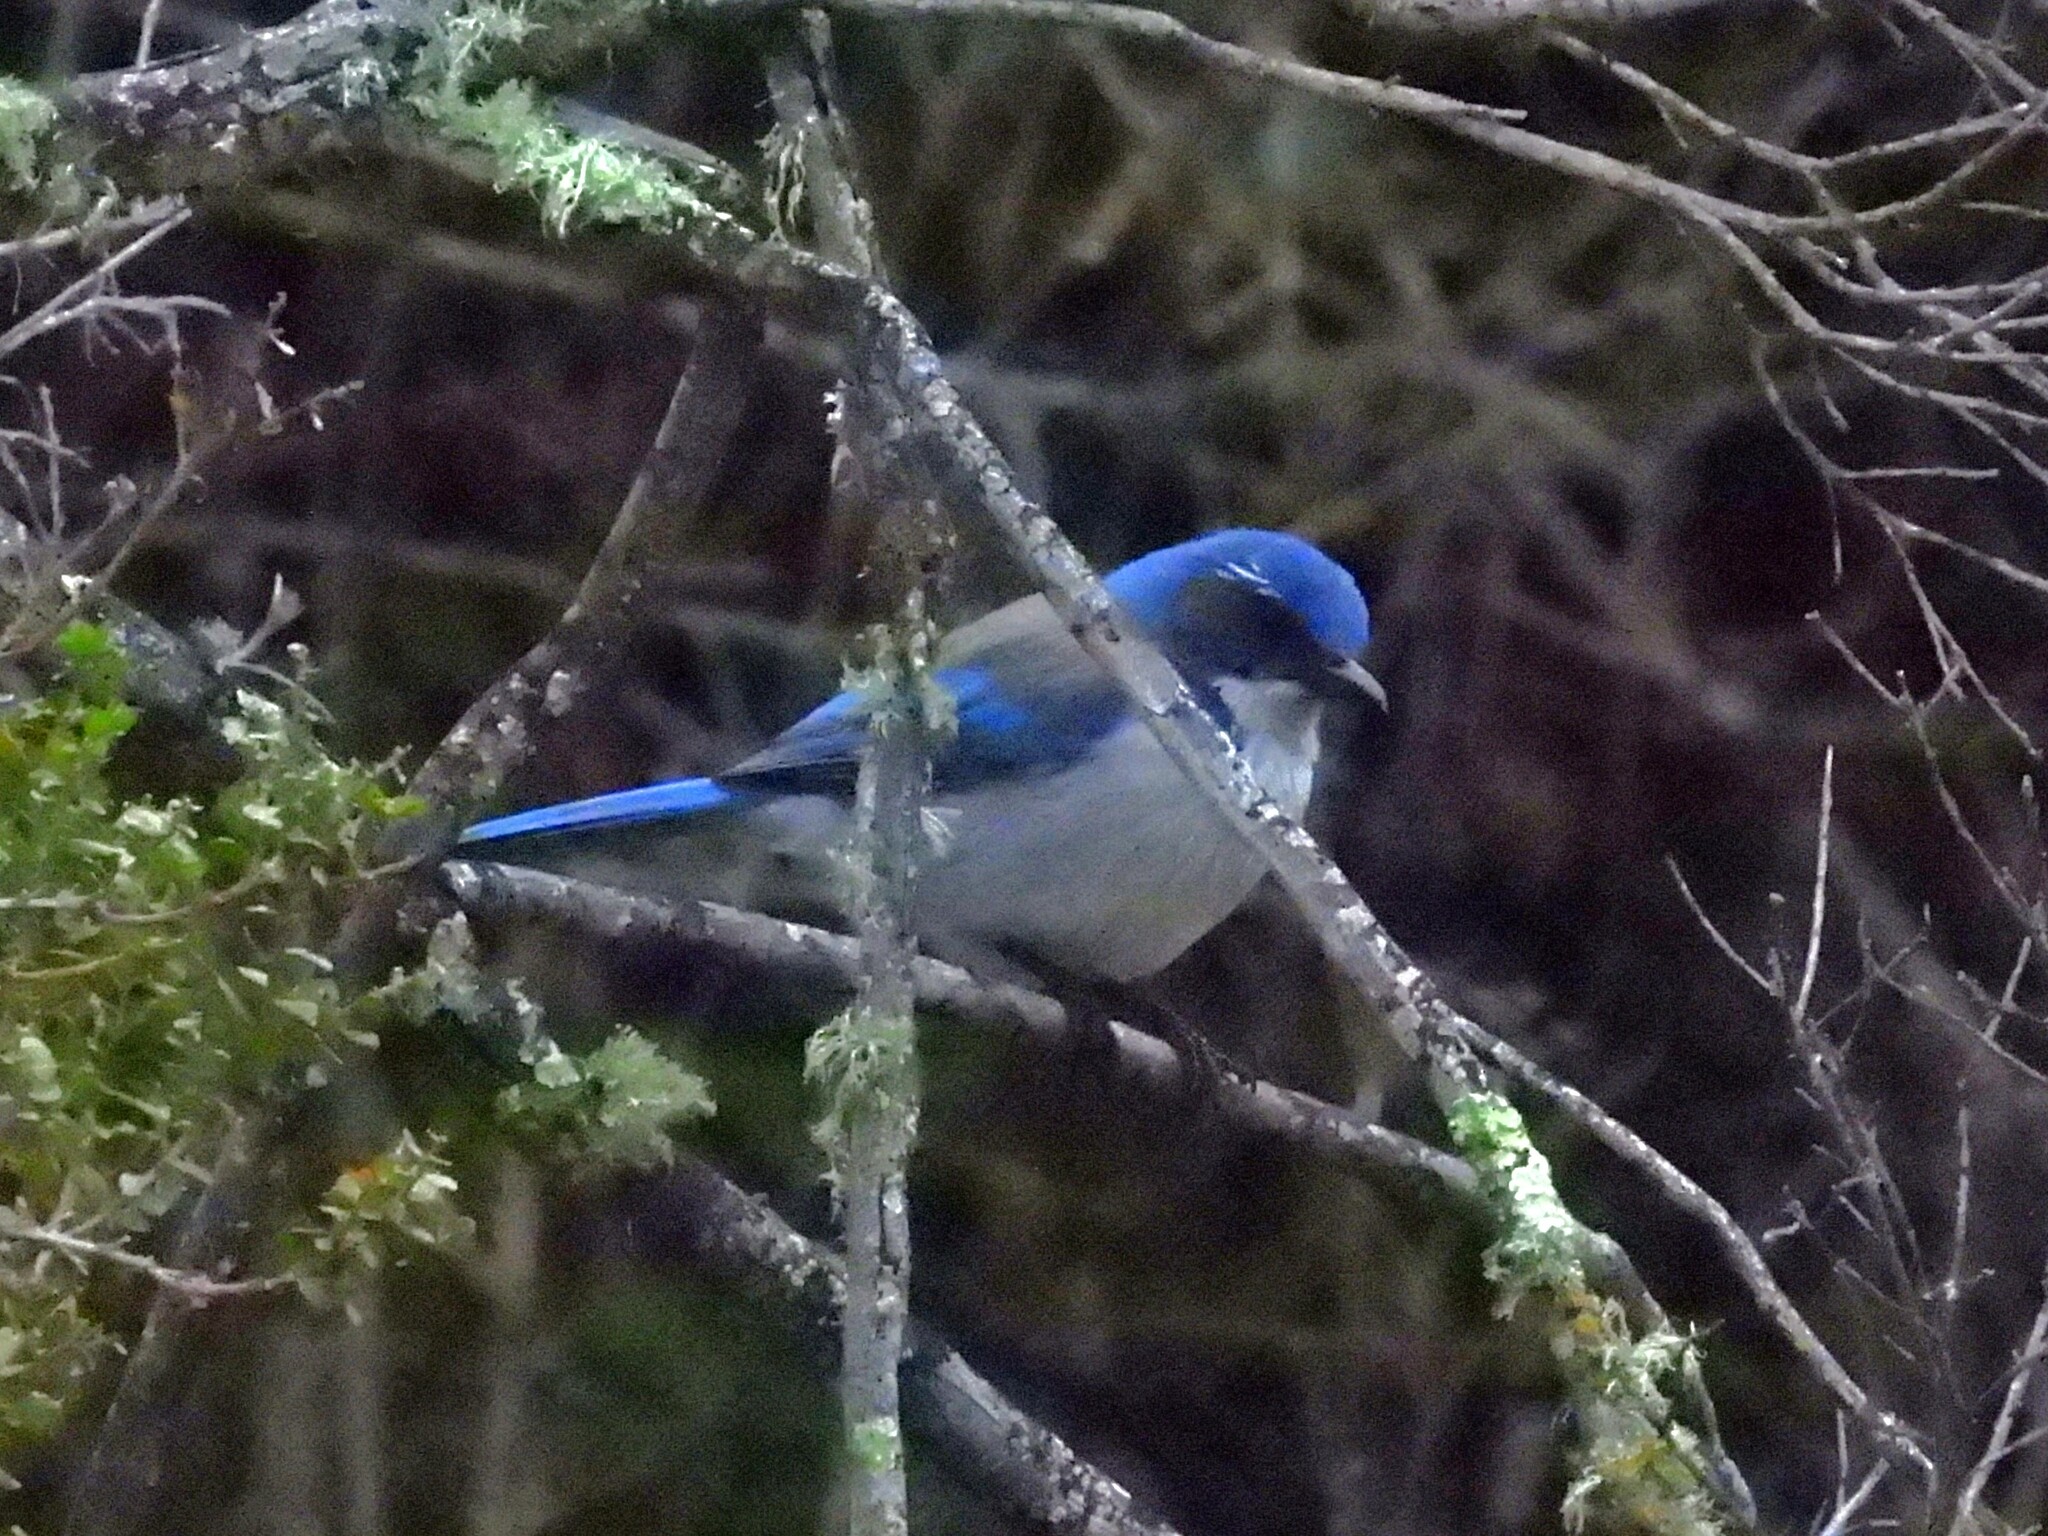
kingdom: Animalia
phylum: Chordata
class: Aves
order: Passeriformes
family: Corvidae
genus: Aphelocoma
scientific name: Aphelocoma californica
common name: California scrub-jay
